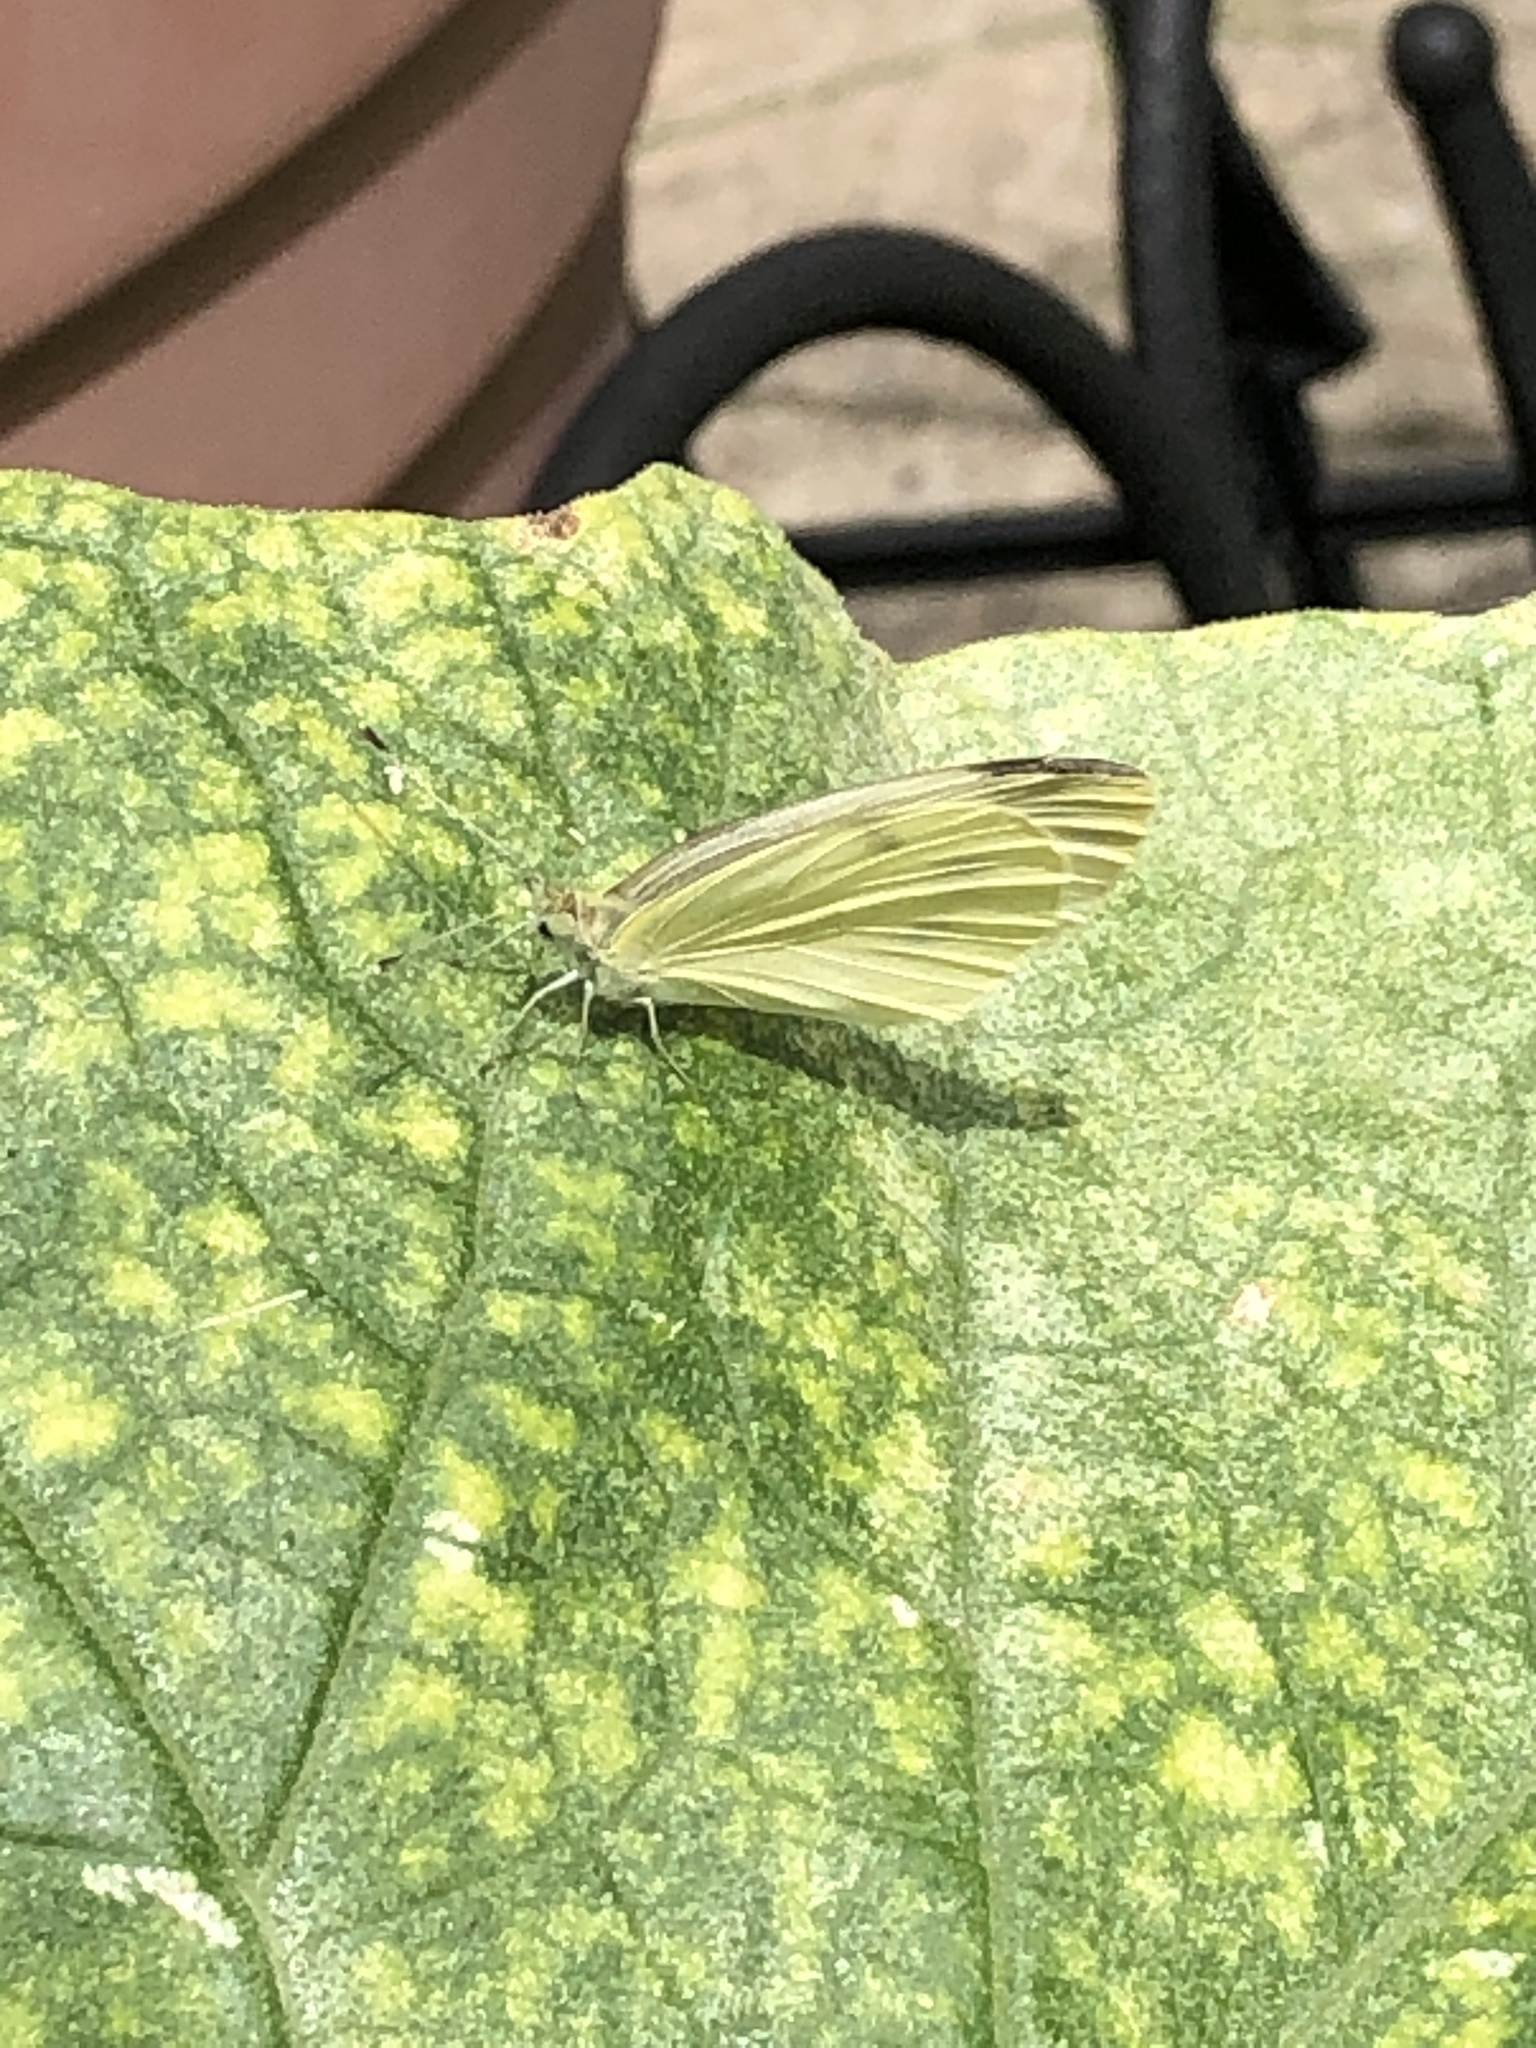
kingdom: Animalia
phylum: Arthropoda
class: Insecta
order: Lepidoptera
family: Pieridae
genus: Pieris
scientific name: Pieris rapae
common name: Small white
